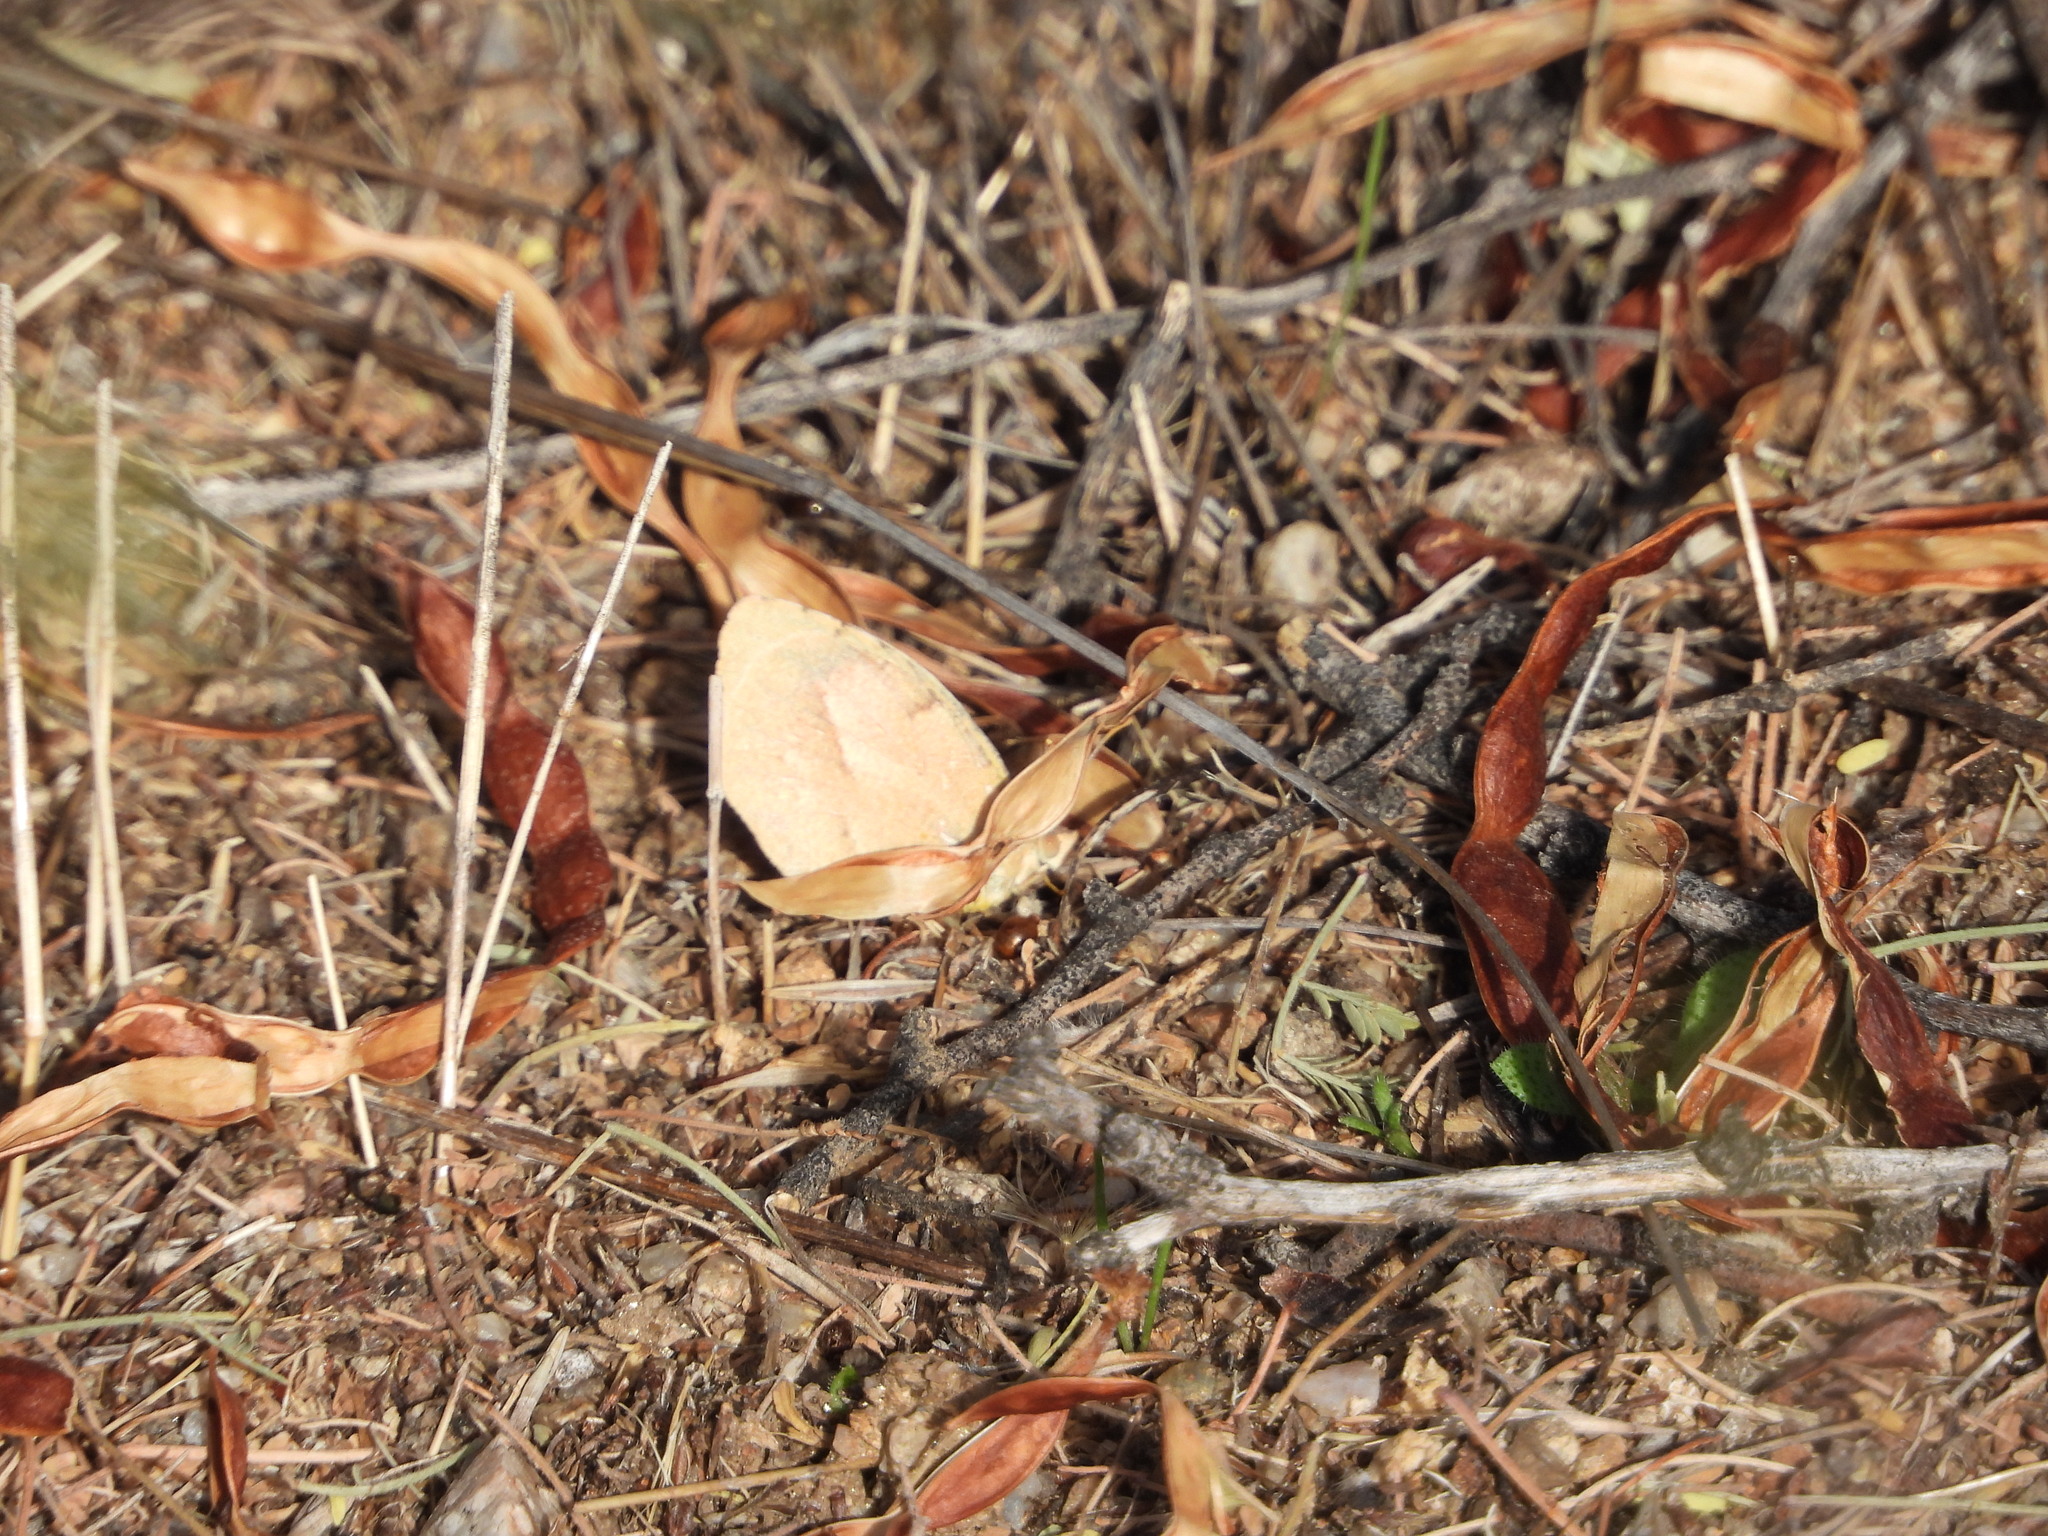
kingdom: Animalia
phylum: Arthropoda
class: Insecta
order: Lepidoptera
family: Pieridae
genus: Abaeis
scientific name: Abaeis nicippe
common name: Sleepy orange
